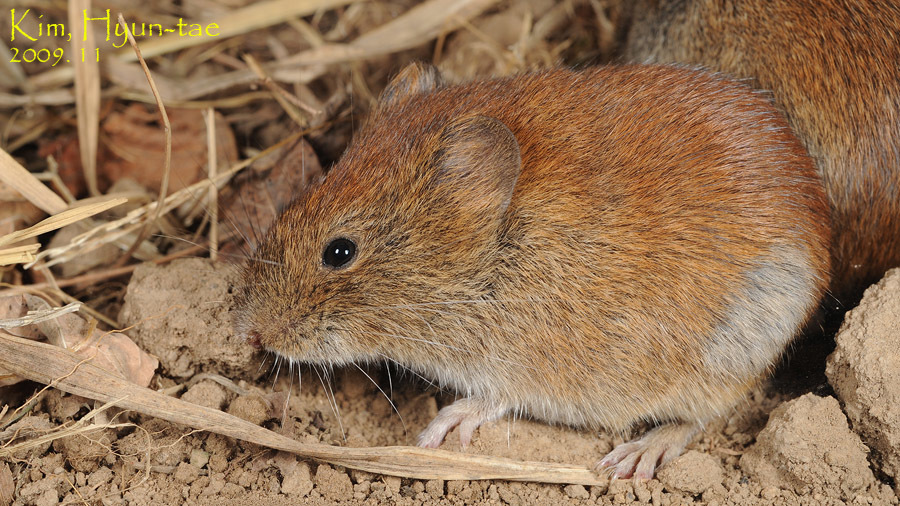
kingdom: Animalia
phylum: Chordata
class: Mammalia
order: Rodentia
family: Cricetidae
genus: Myodes
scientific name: Myodes regulus
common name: Korean red-backed vole
